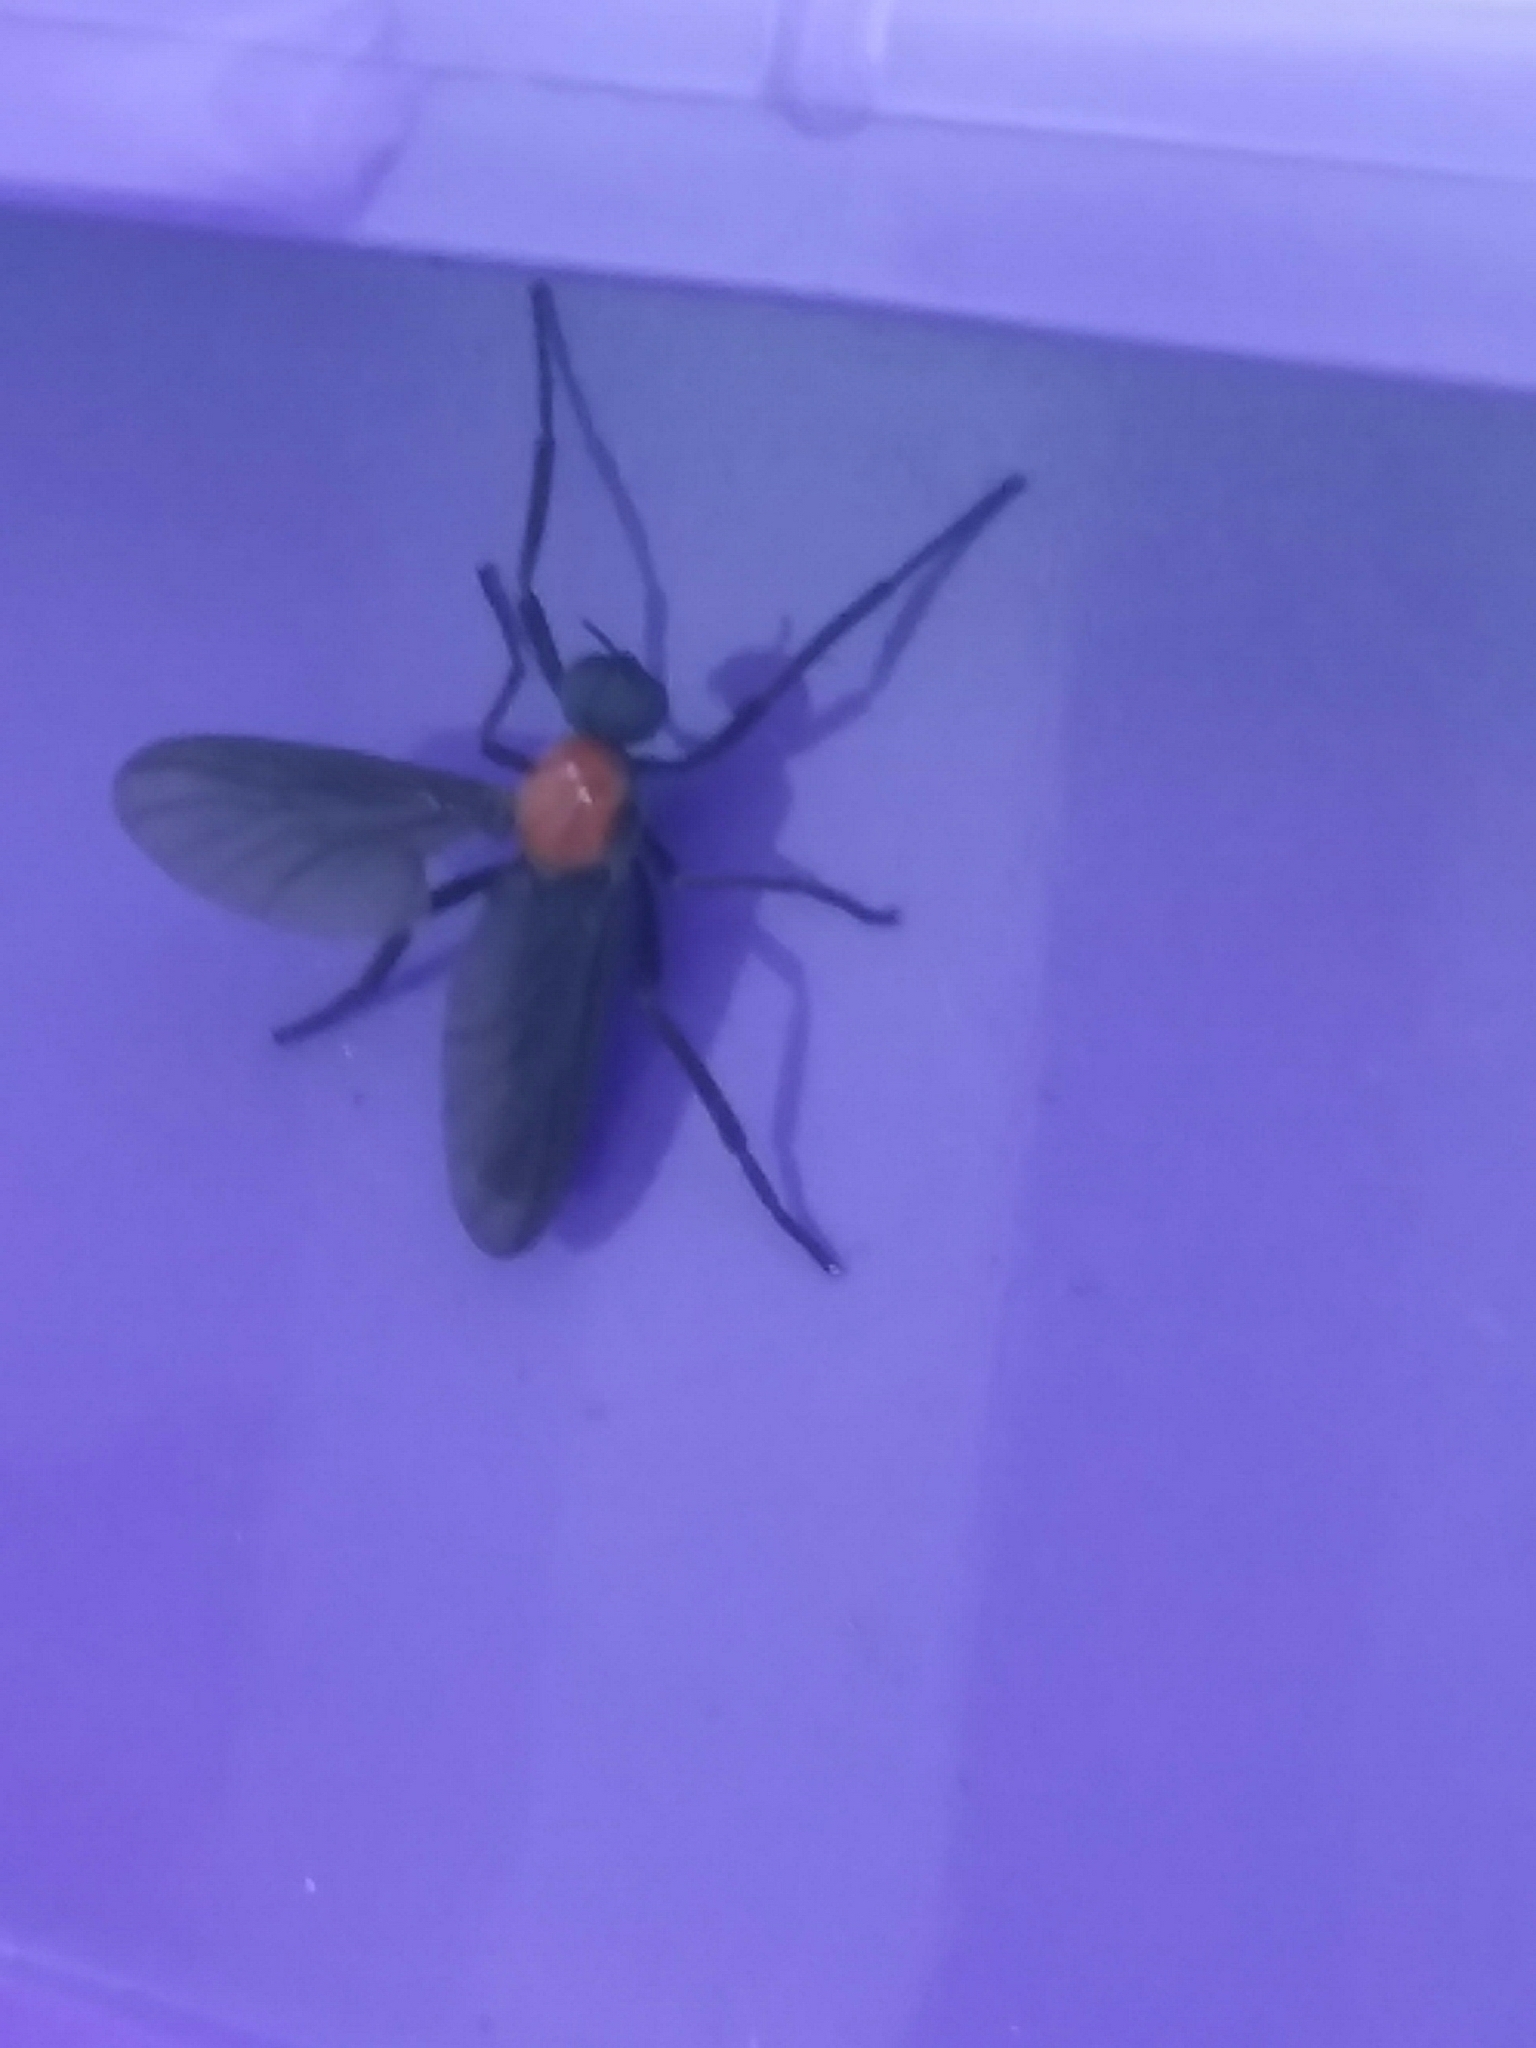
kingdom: Animalia
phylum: Arthropoda
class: Insecta
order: Diptera
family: Bibionidae
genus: Plecia
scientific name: Plecia nearctica
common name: March fly
